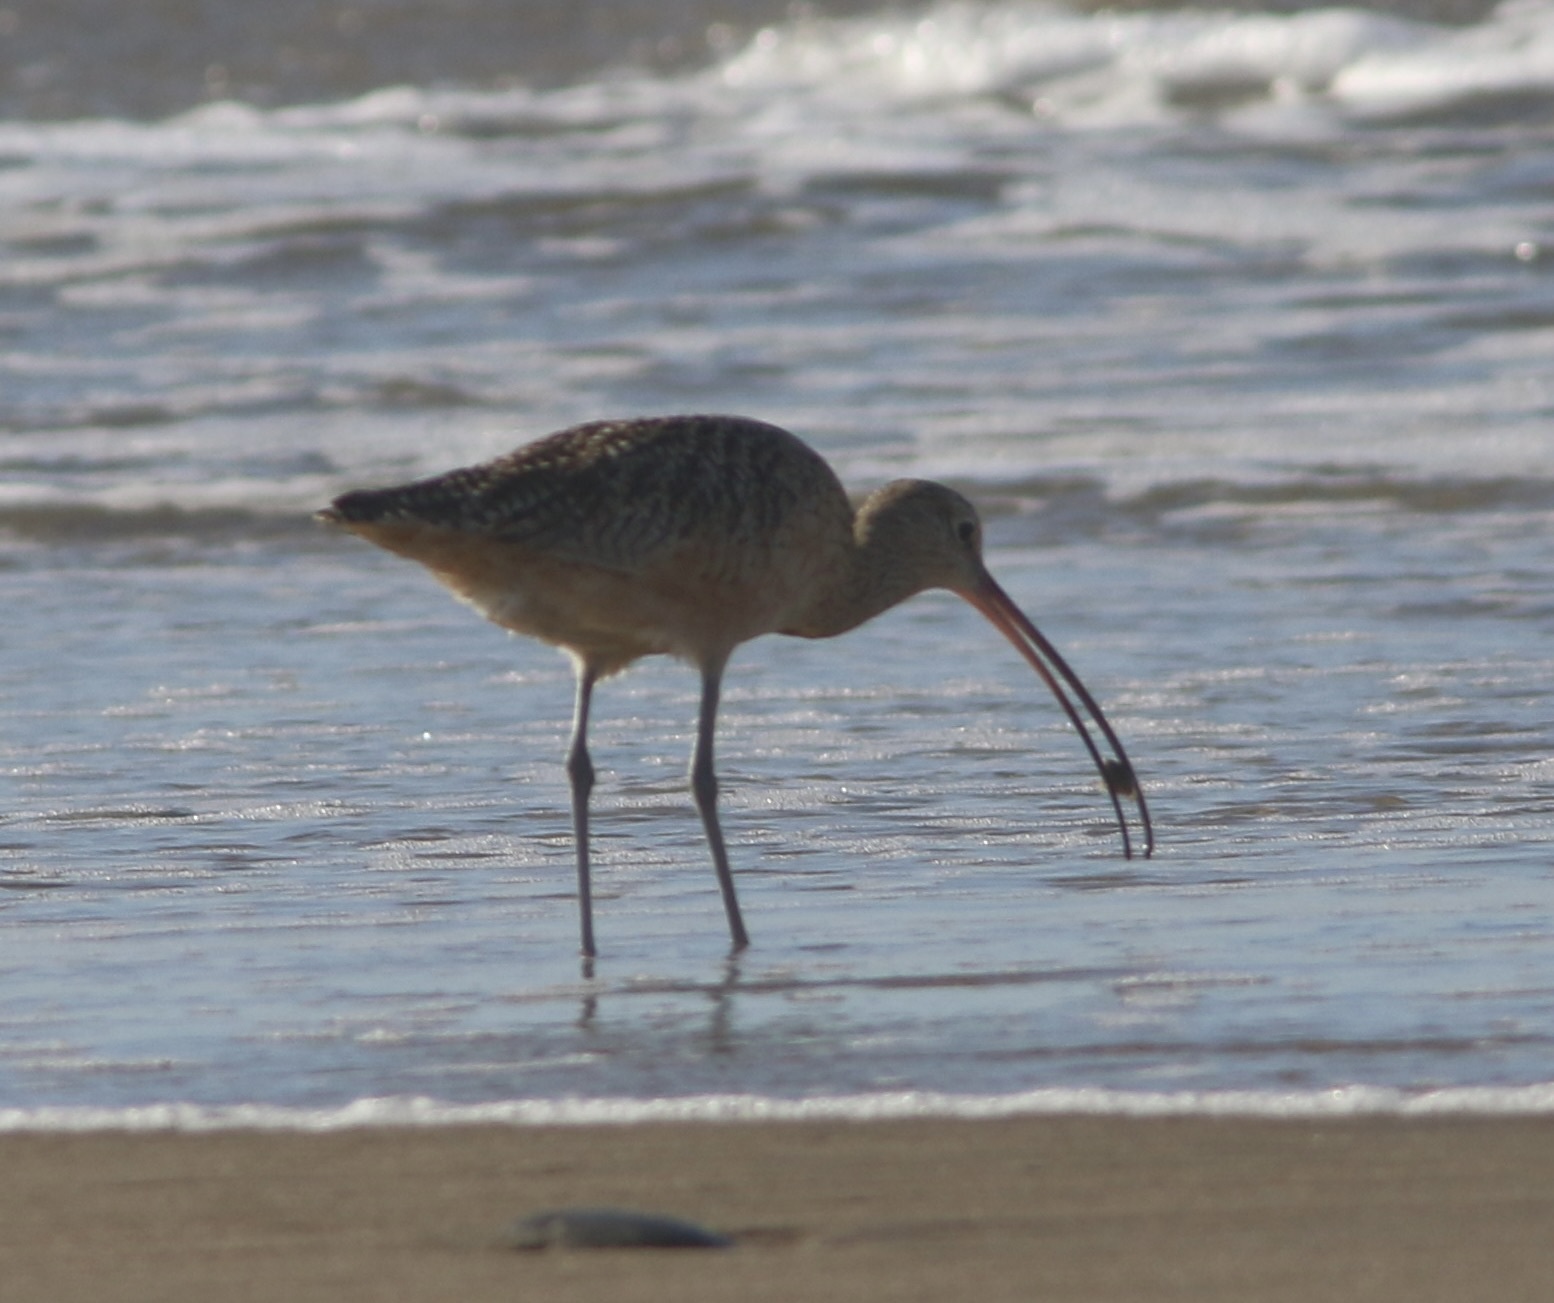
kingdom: Animalia
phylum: Chordata
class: Aves
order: Charadriiformes
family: Scolopacidae
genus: Numenius
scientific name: Numenius americanus
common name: Long-billed curlew
